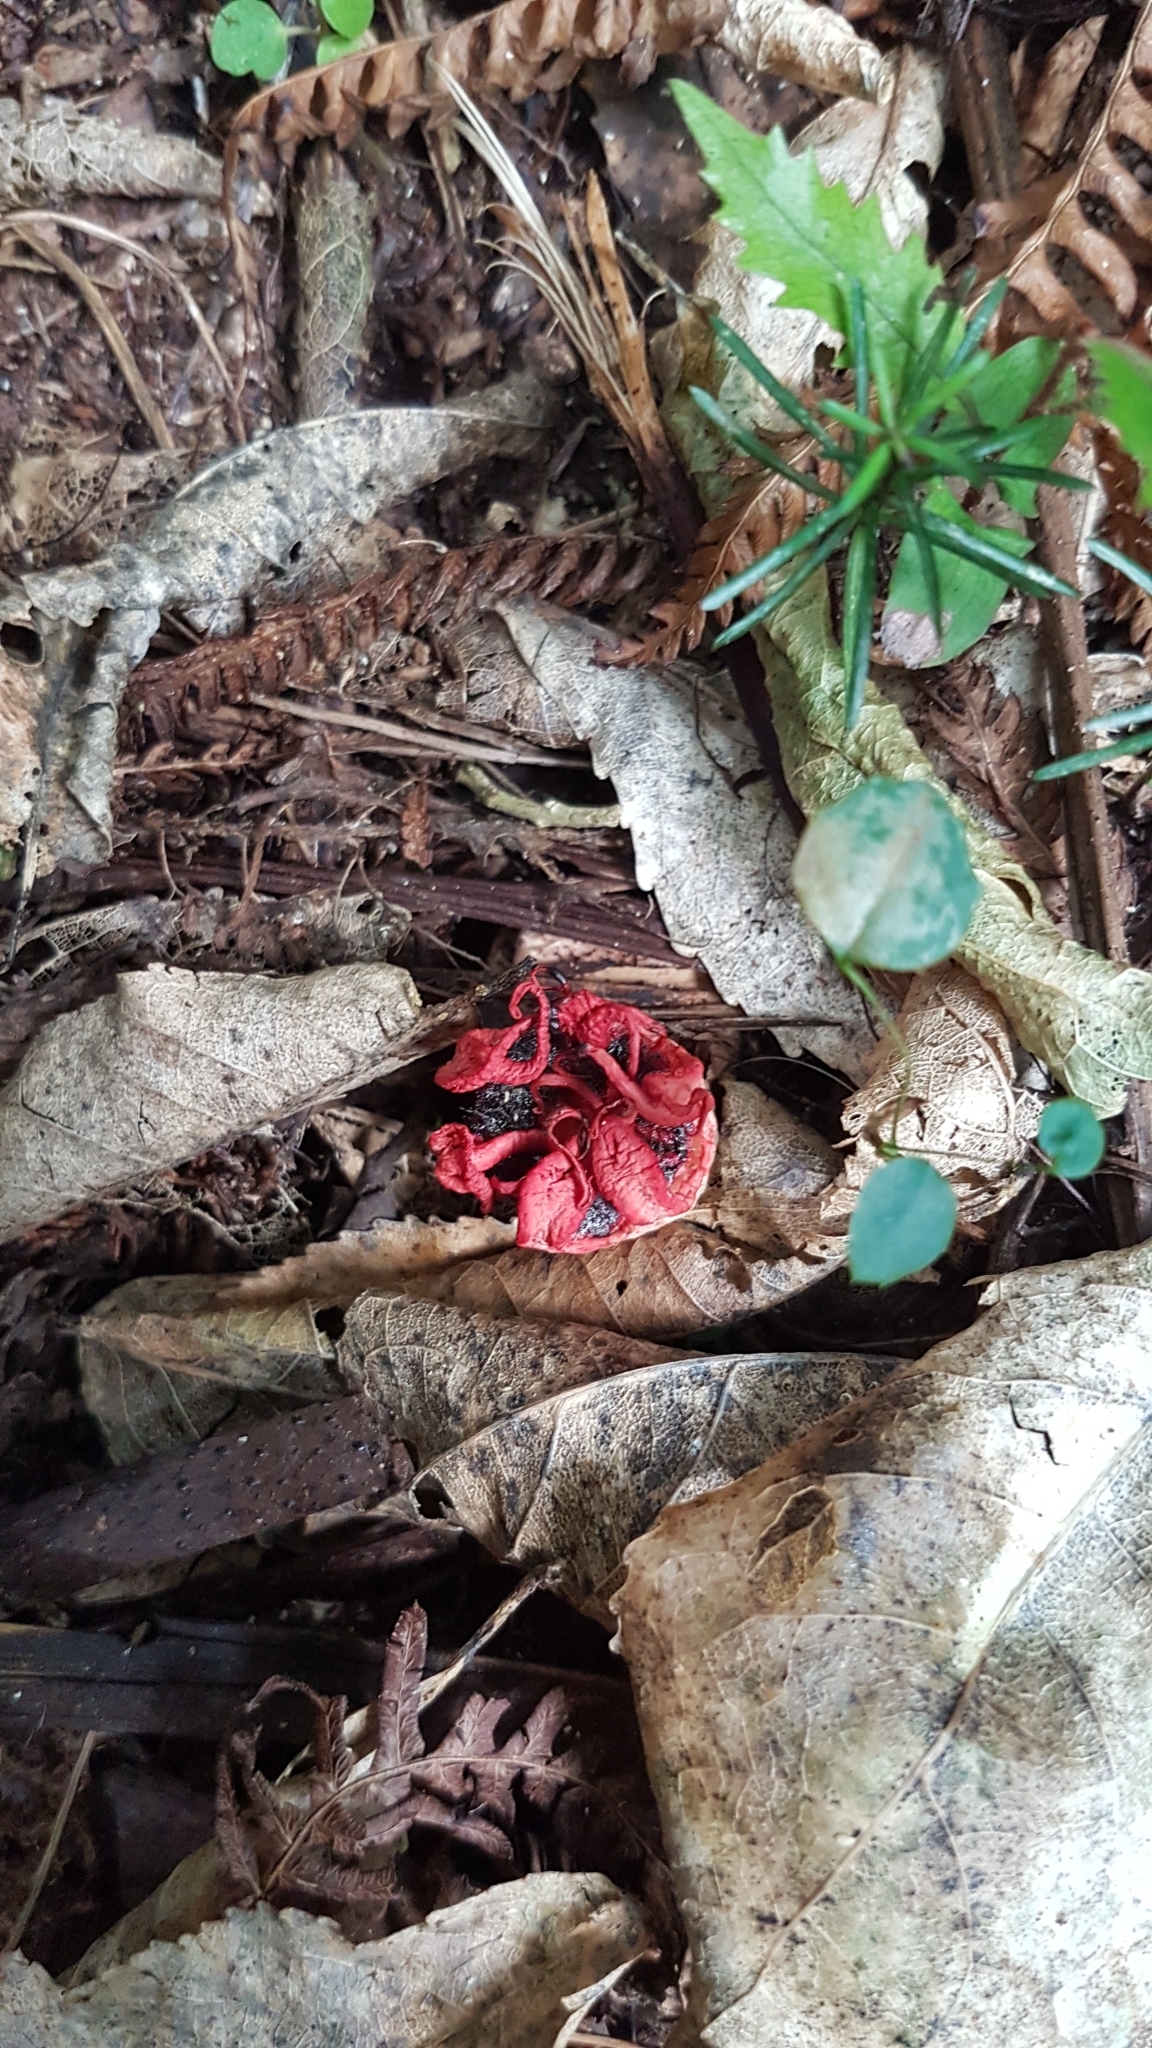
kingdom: Fungi
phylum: Basidiomycota
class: Agaricomycetes
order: Phallales
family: Phallaceae
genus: Aseroe
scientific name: Aseroe rubra
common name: Starfish fungus
